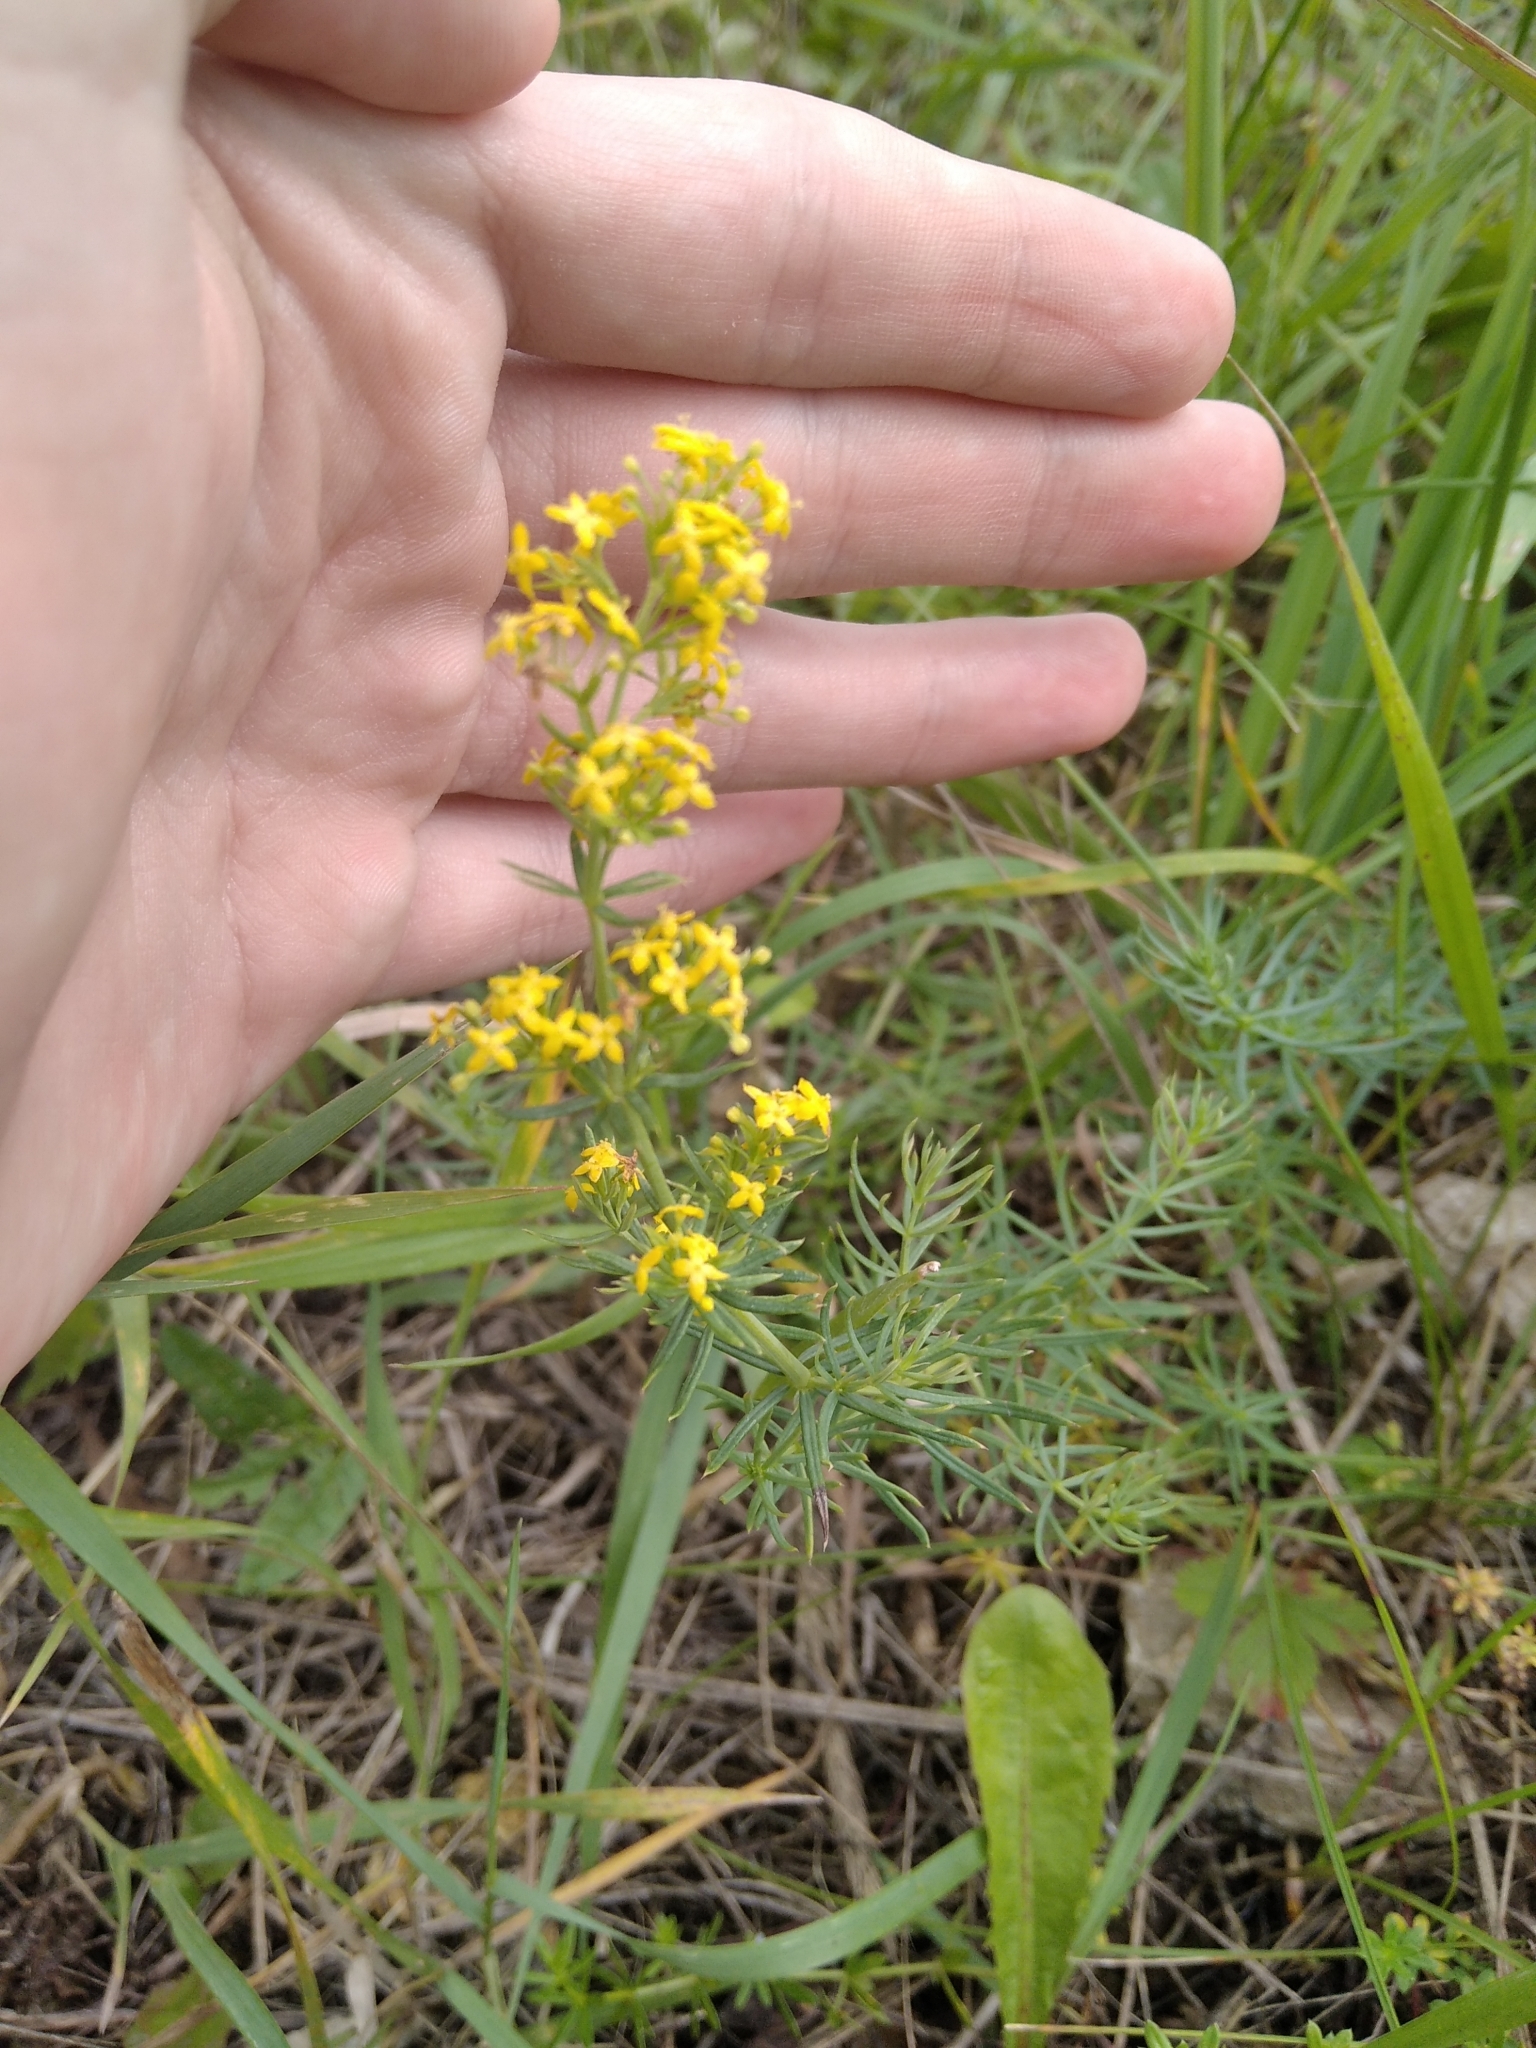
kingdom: Plantae
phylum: Tracheophyta
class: Magnoliopsida
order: Gentianales
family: Rubiaceae
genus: Galium
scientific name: Galium verum
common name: Lady's bedstraw
